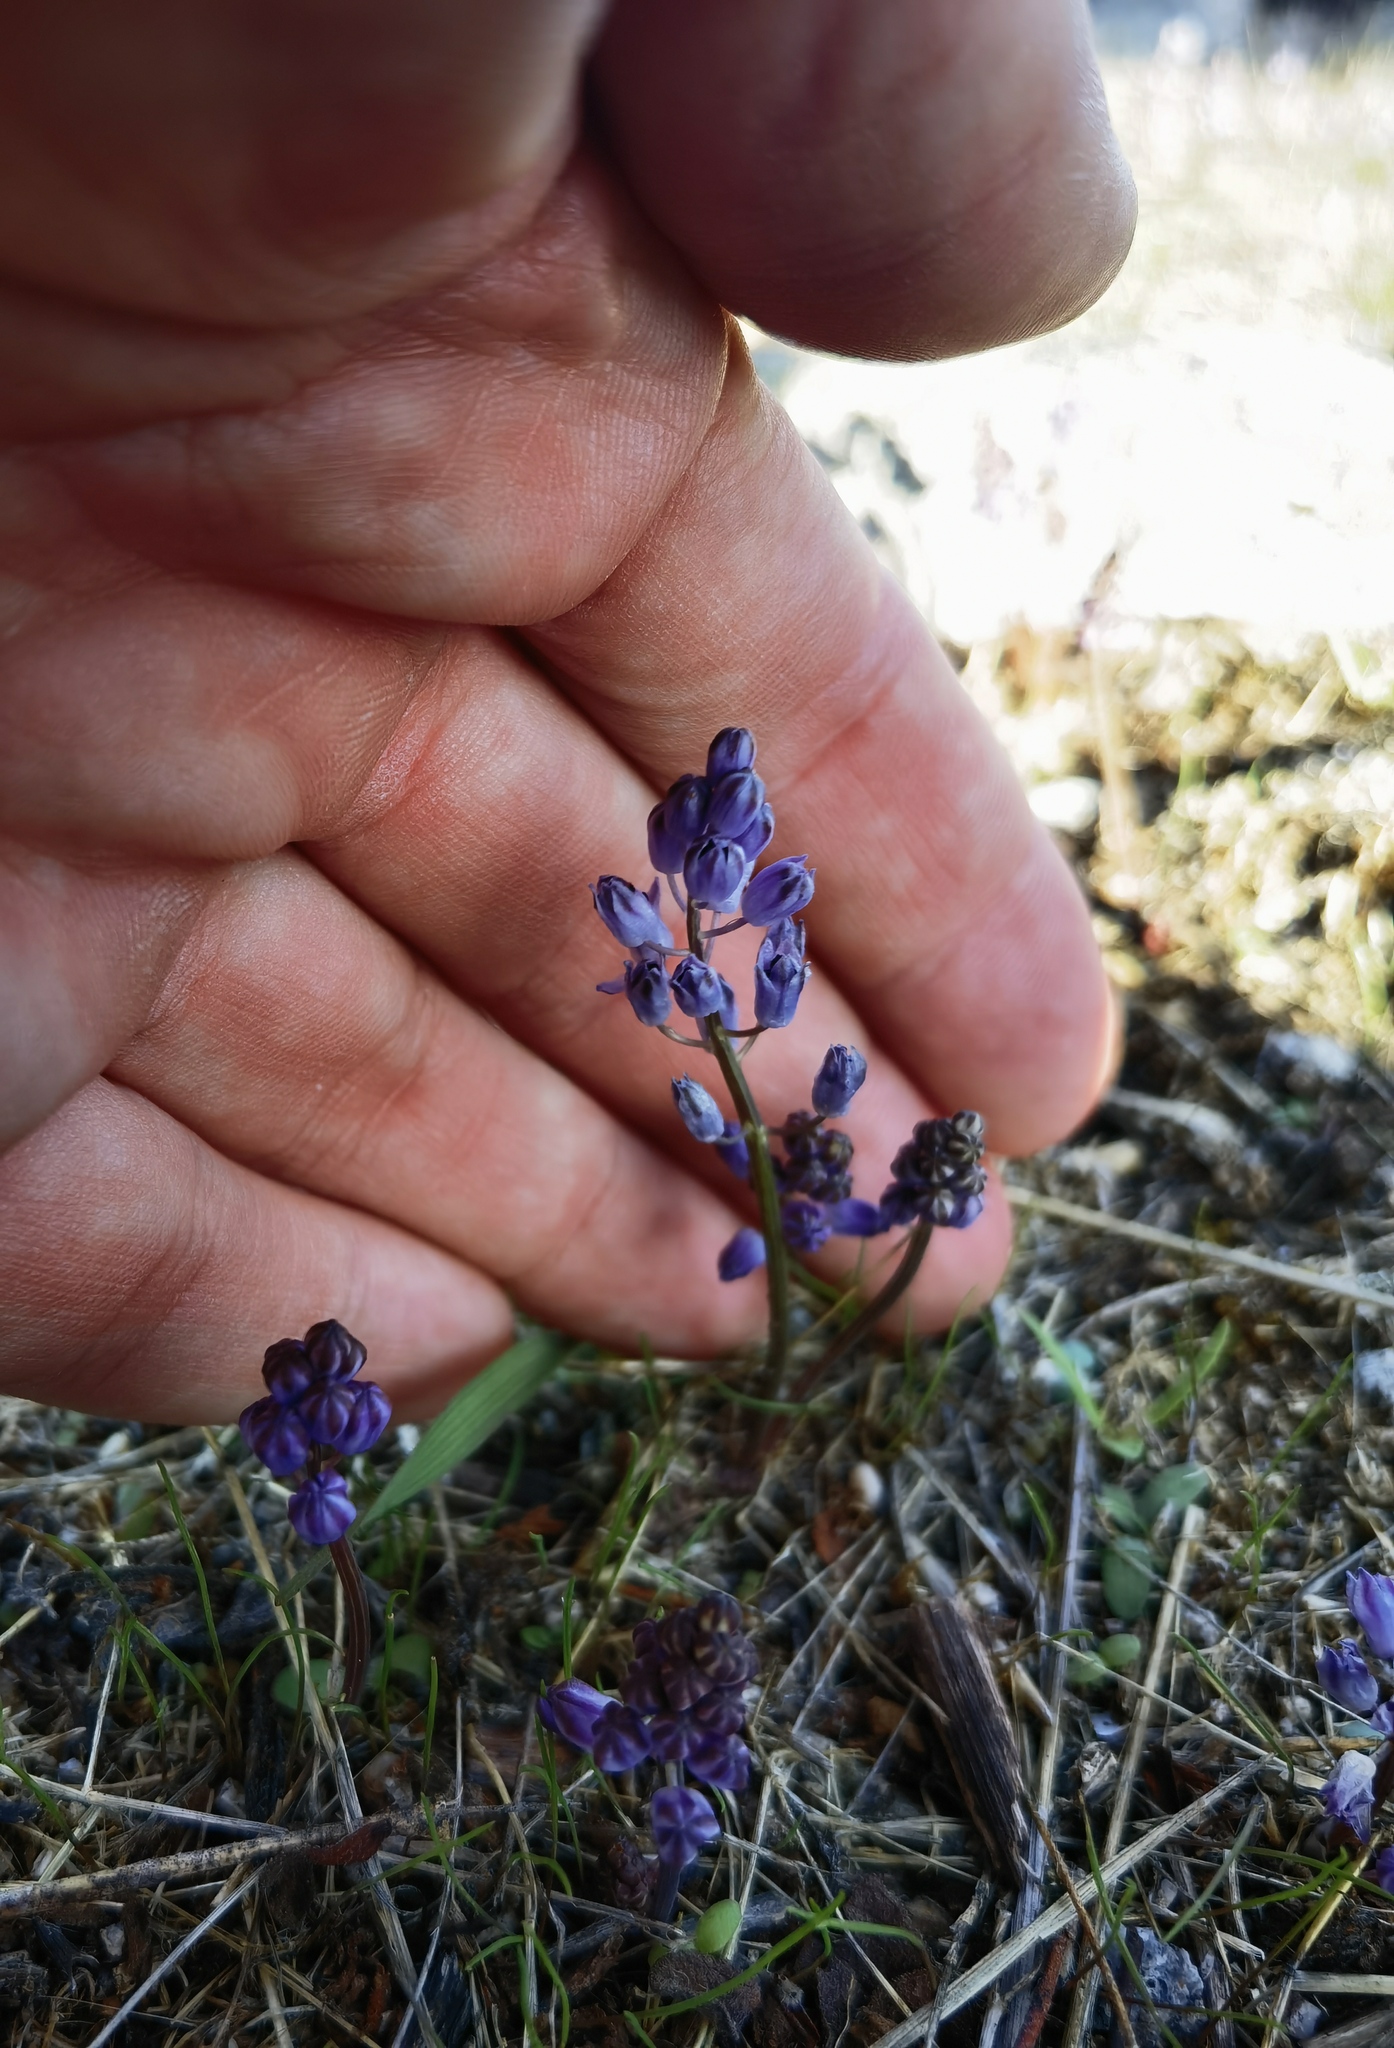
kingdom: Plantae
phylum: Tracheophyta
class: Liliopsida
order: Asparagales
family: Asparagaceae
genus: Prospero
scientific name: Prospero autumnale
